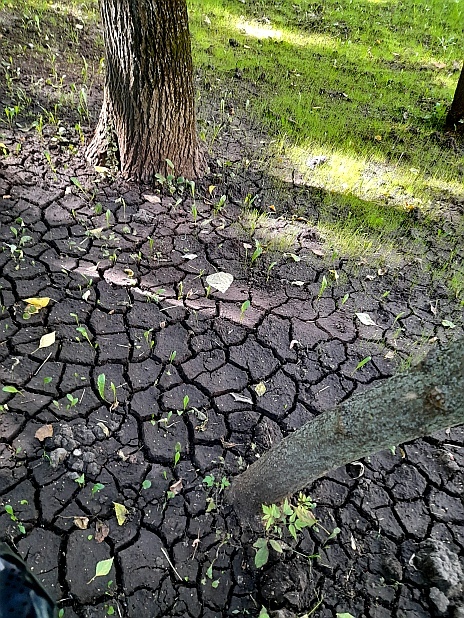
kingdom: Plantae
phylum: Tracheophyta
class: Magnoliopsida
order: Asterales
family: Asteraceae
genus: Taraxacum
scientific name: Taraxacum officinale
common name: Common dandelion
